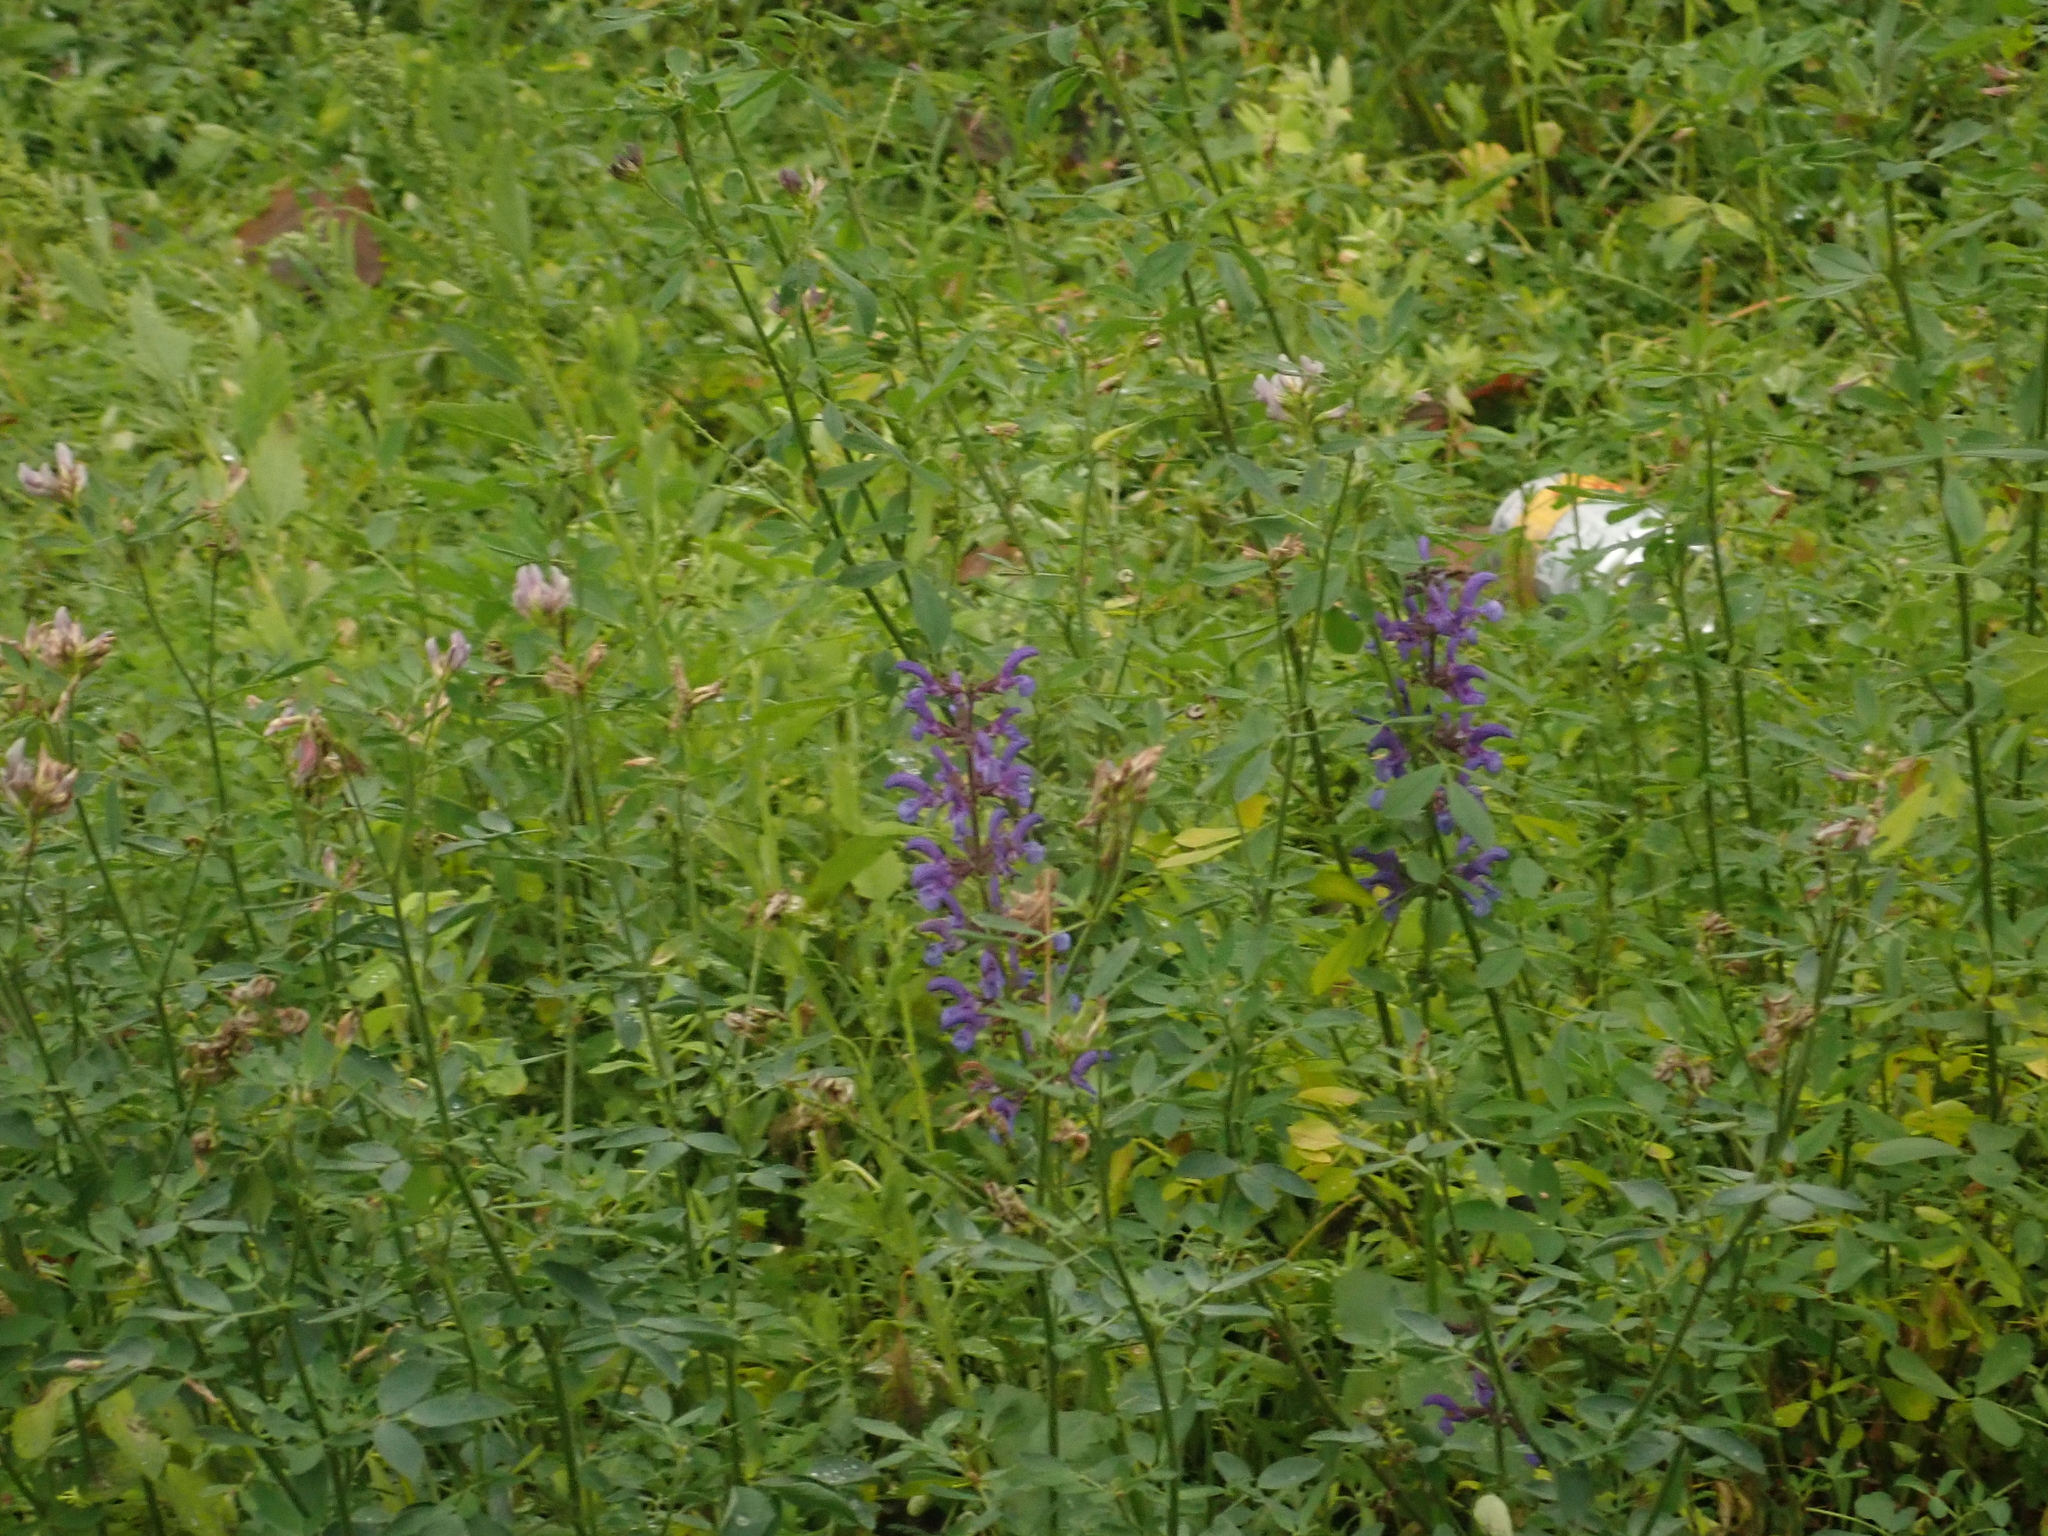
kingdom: Plantae
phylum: Tracheophyta
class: Magnoliopsida
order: Lamiales
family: Lamiaceae
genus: Salvia
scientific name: Salvia pratensis
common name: Meadow sage
